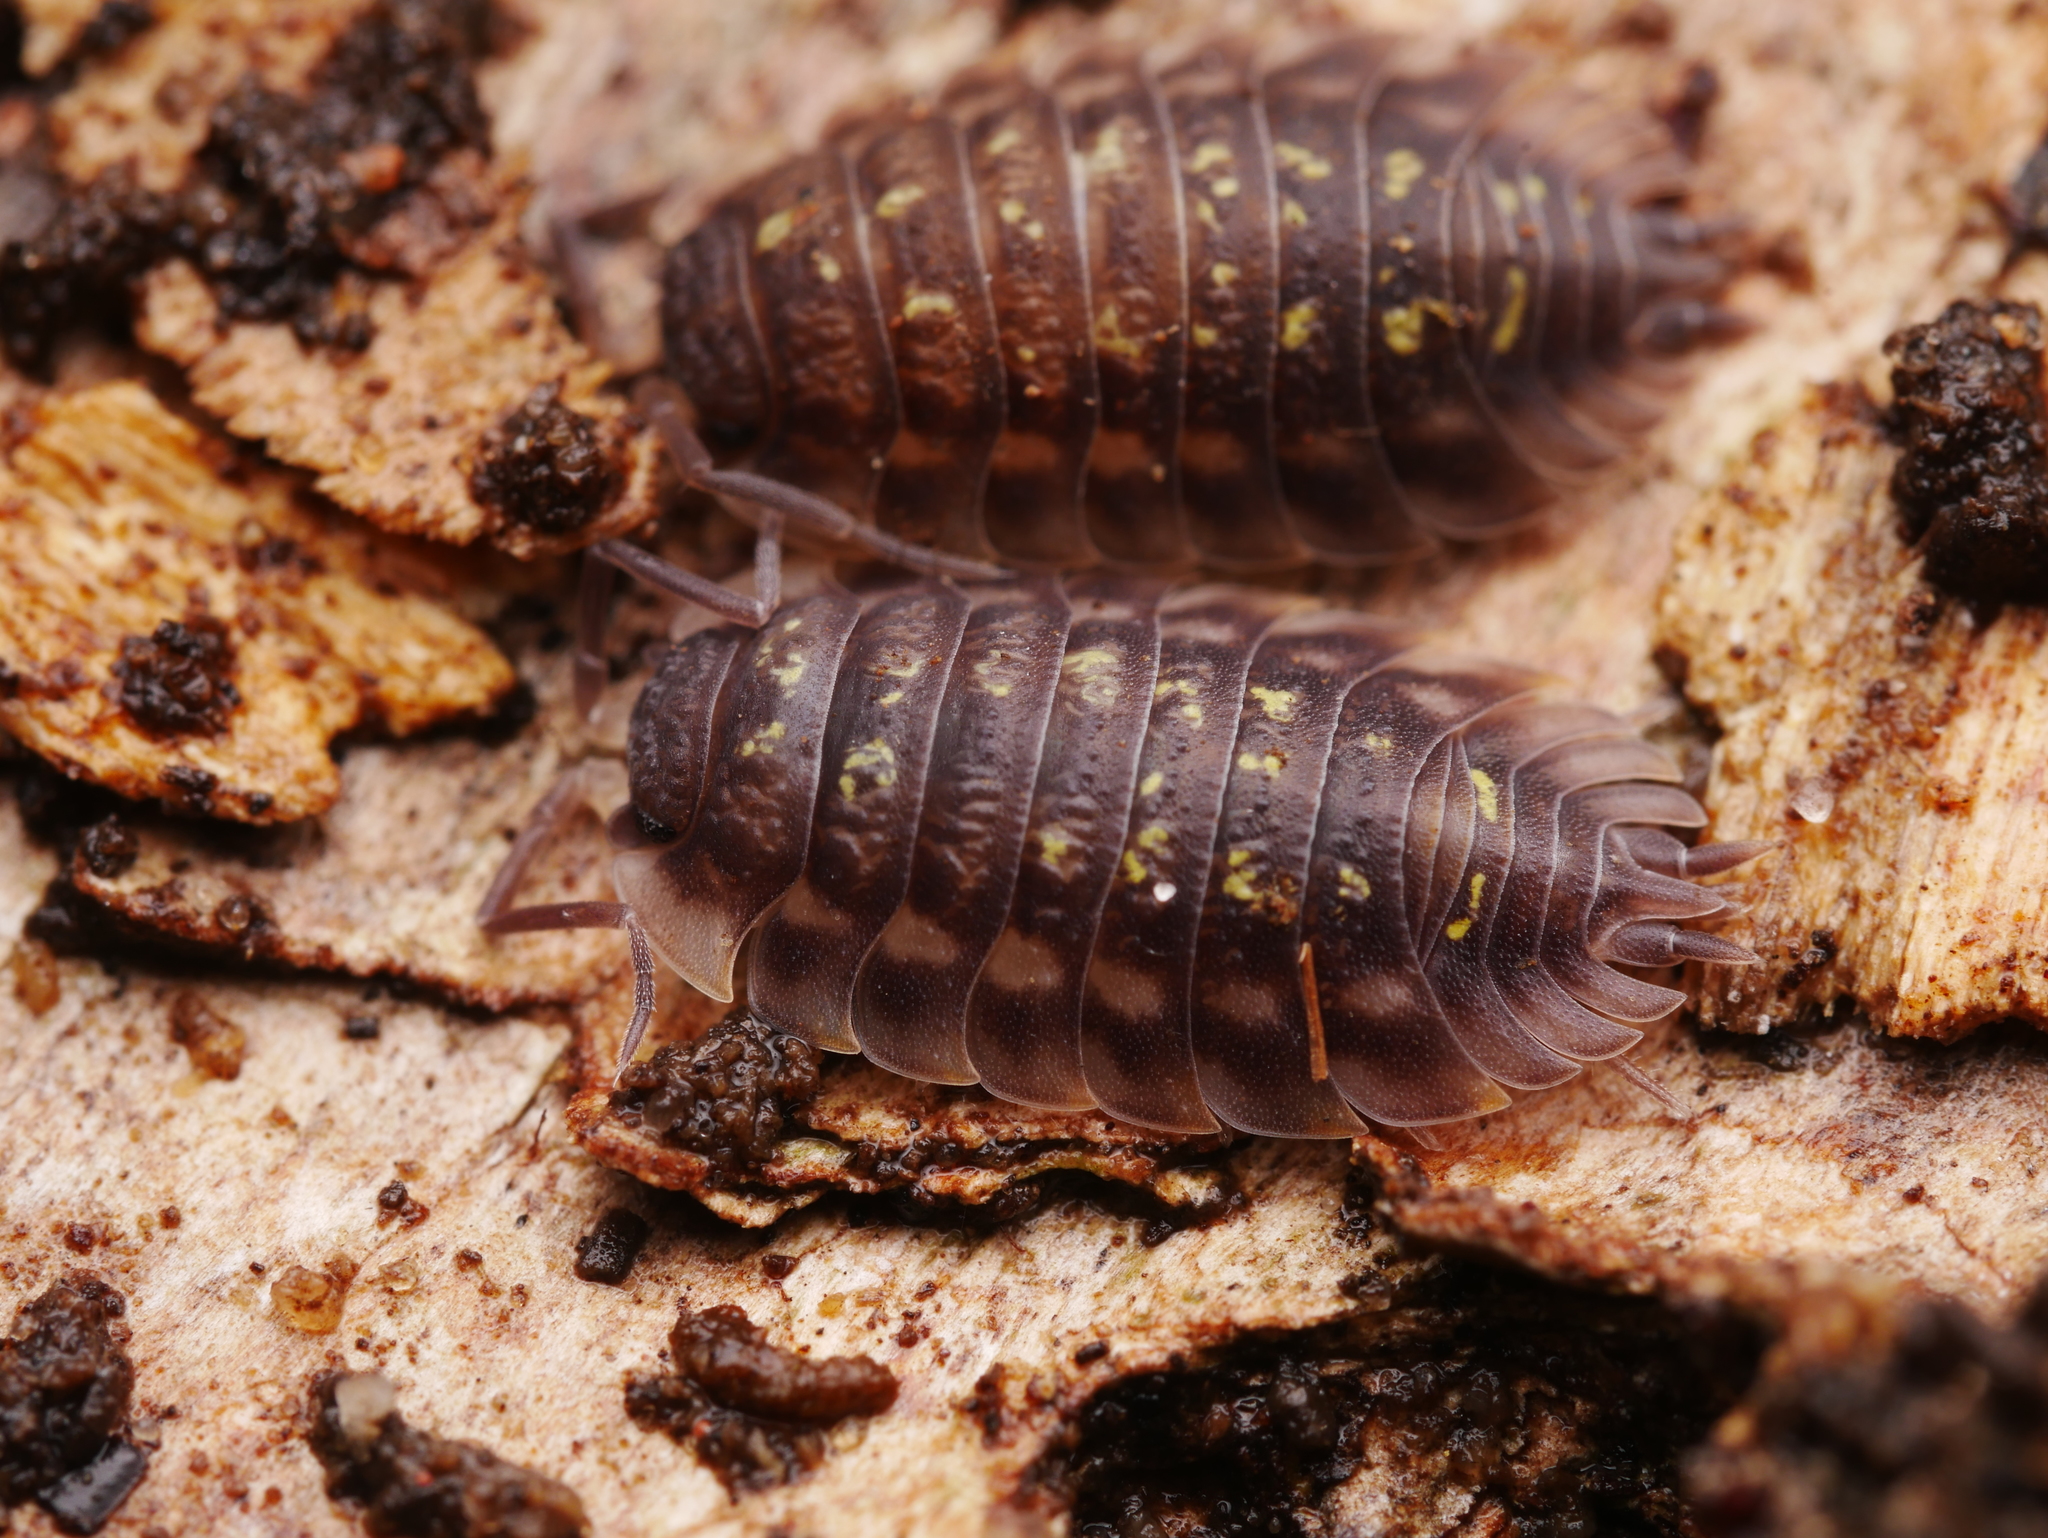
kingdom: Animalia
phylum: Arthropoda
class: Malacostraca
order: Isopoda
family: Oniscidae
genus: Oniscus
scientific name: Oniscus asellus
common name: Common shiny woodlouse
